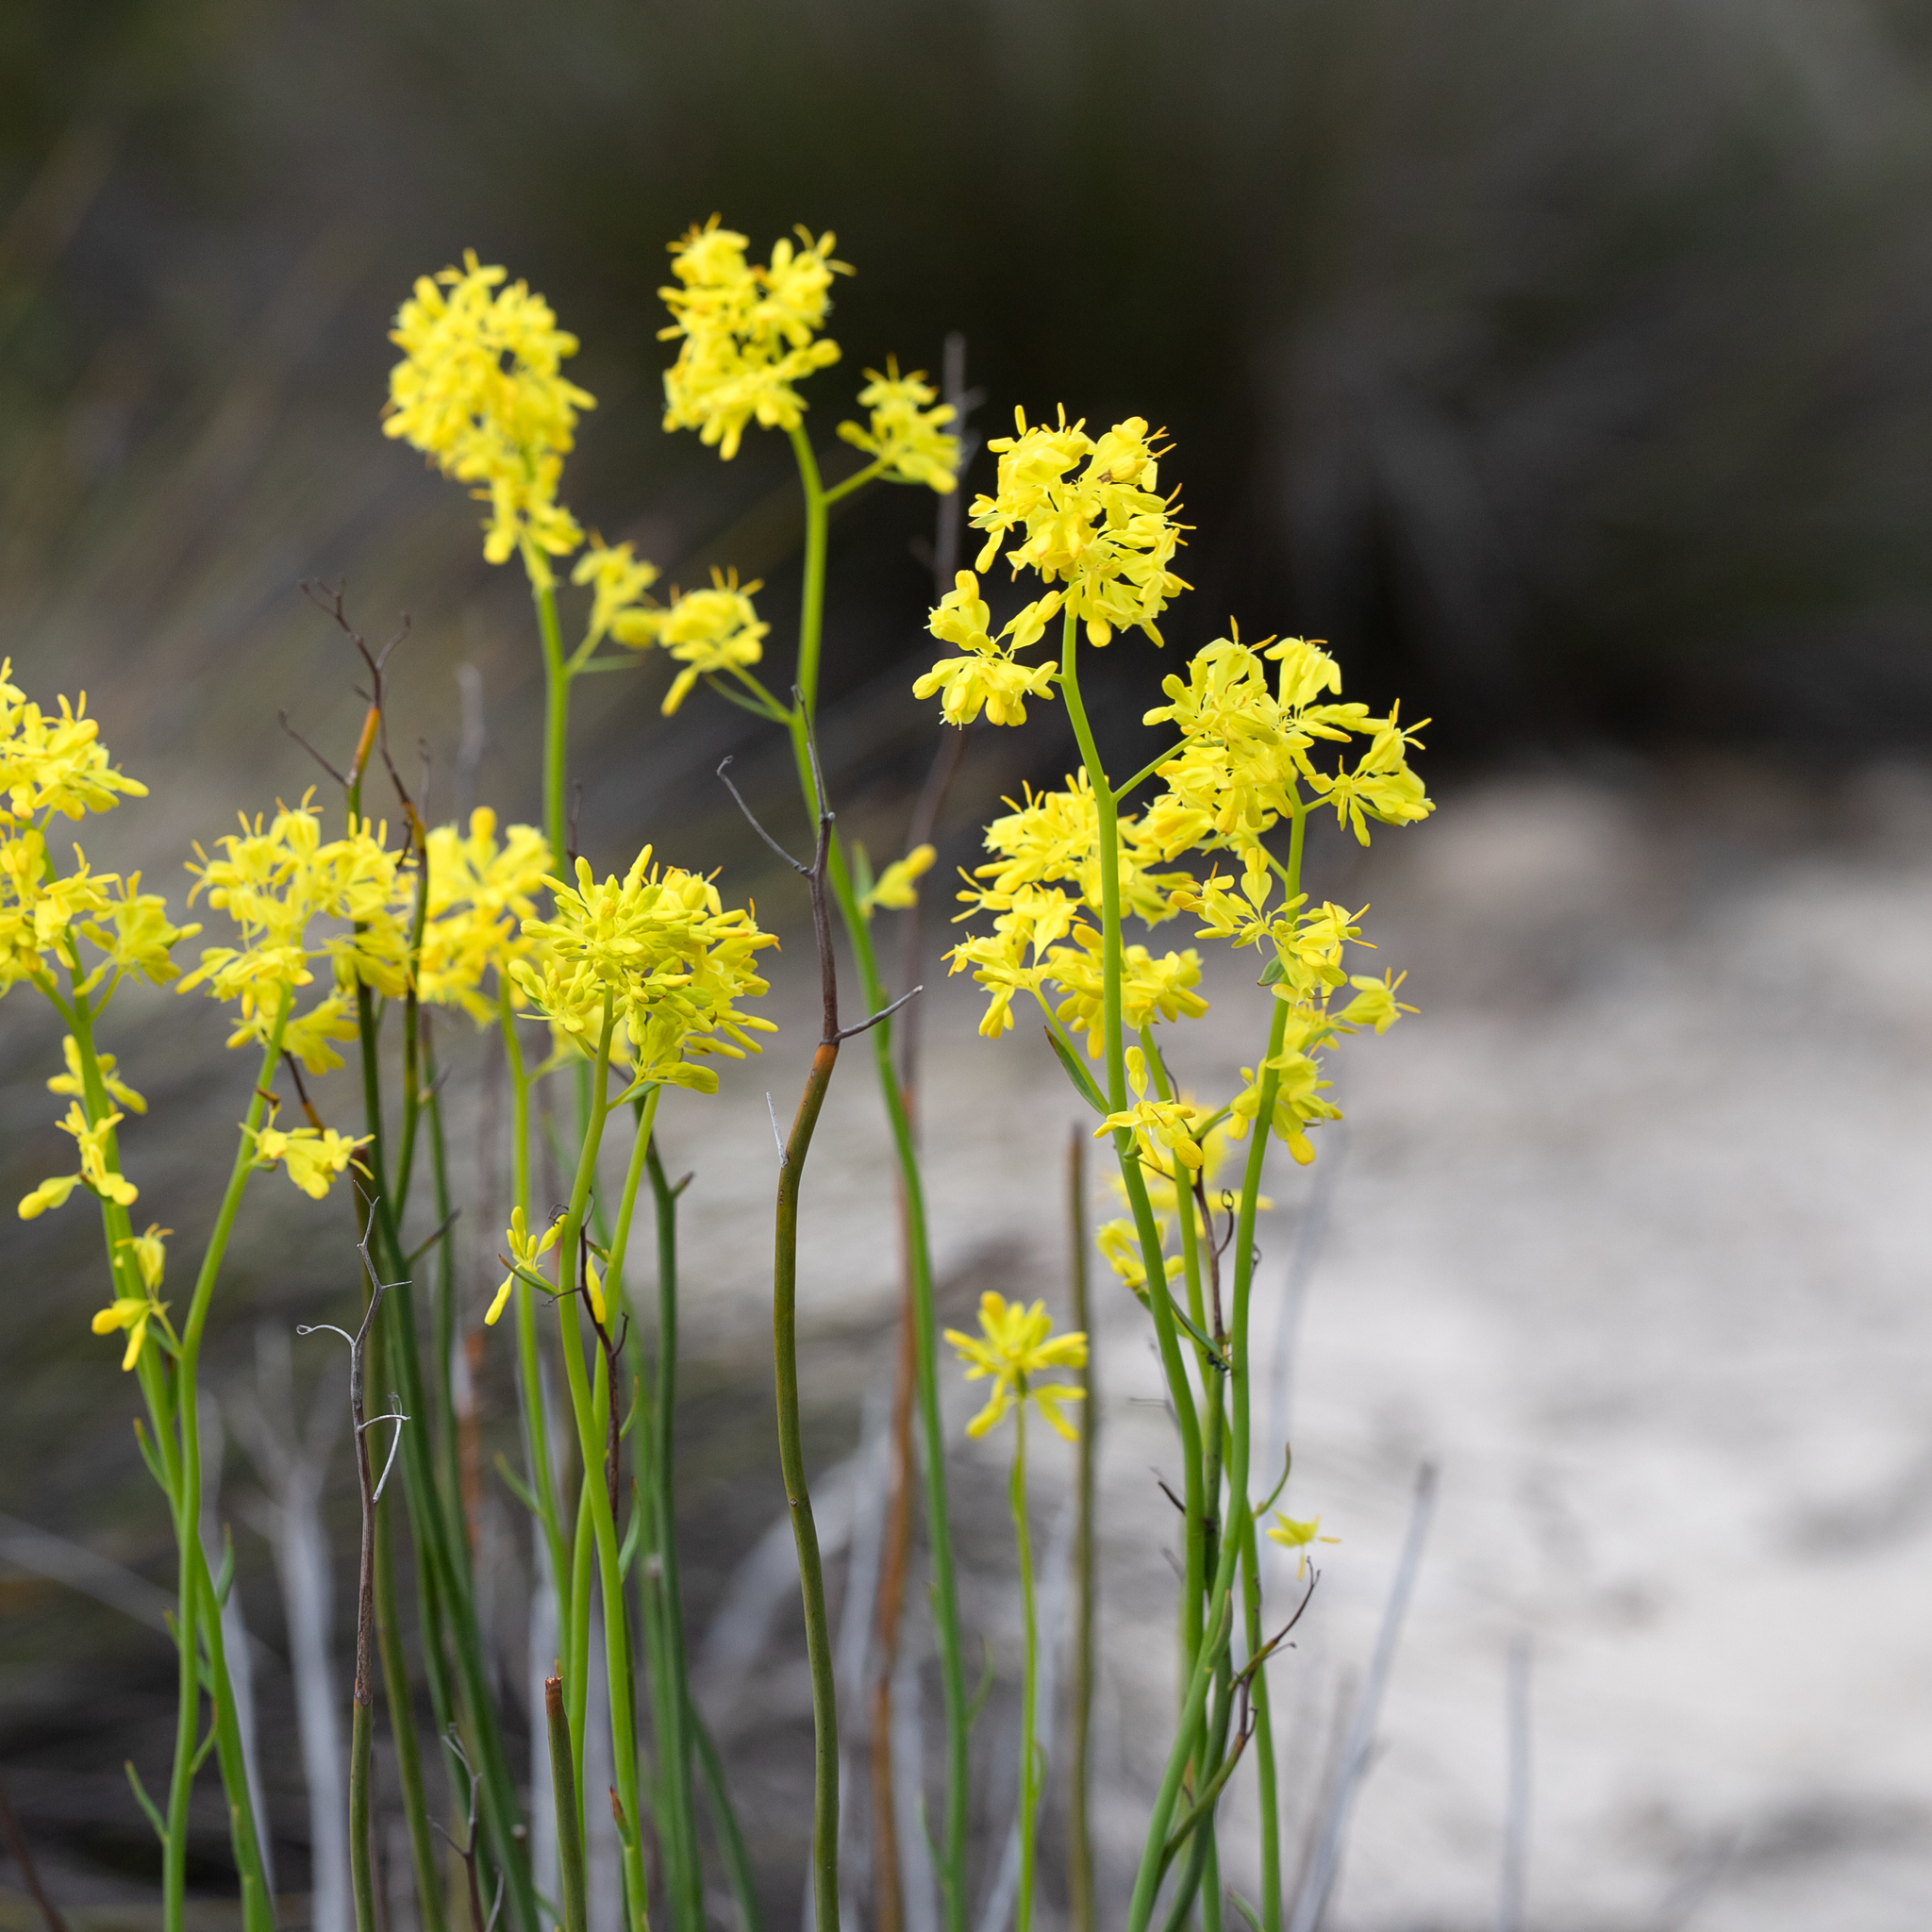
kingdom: Plantae
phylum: Tracheophyta
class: Magnoliopsida
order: Saxifragales
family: Haloragaceae
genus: Glischrocaryon
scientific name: Glischrocaryon behrii
